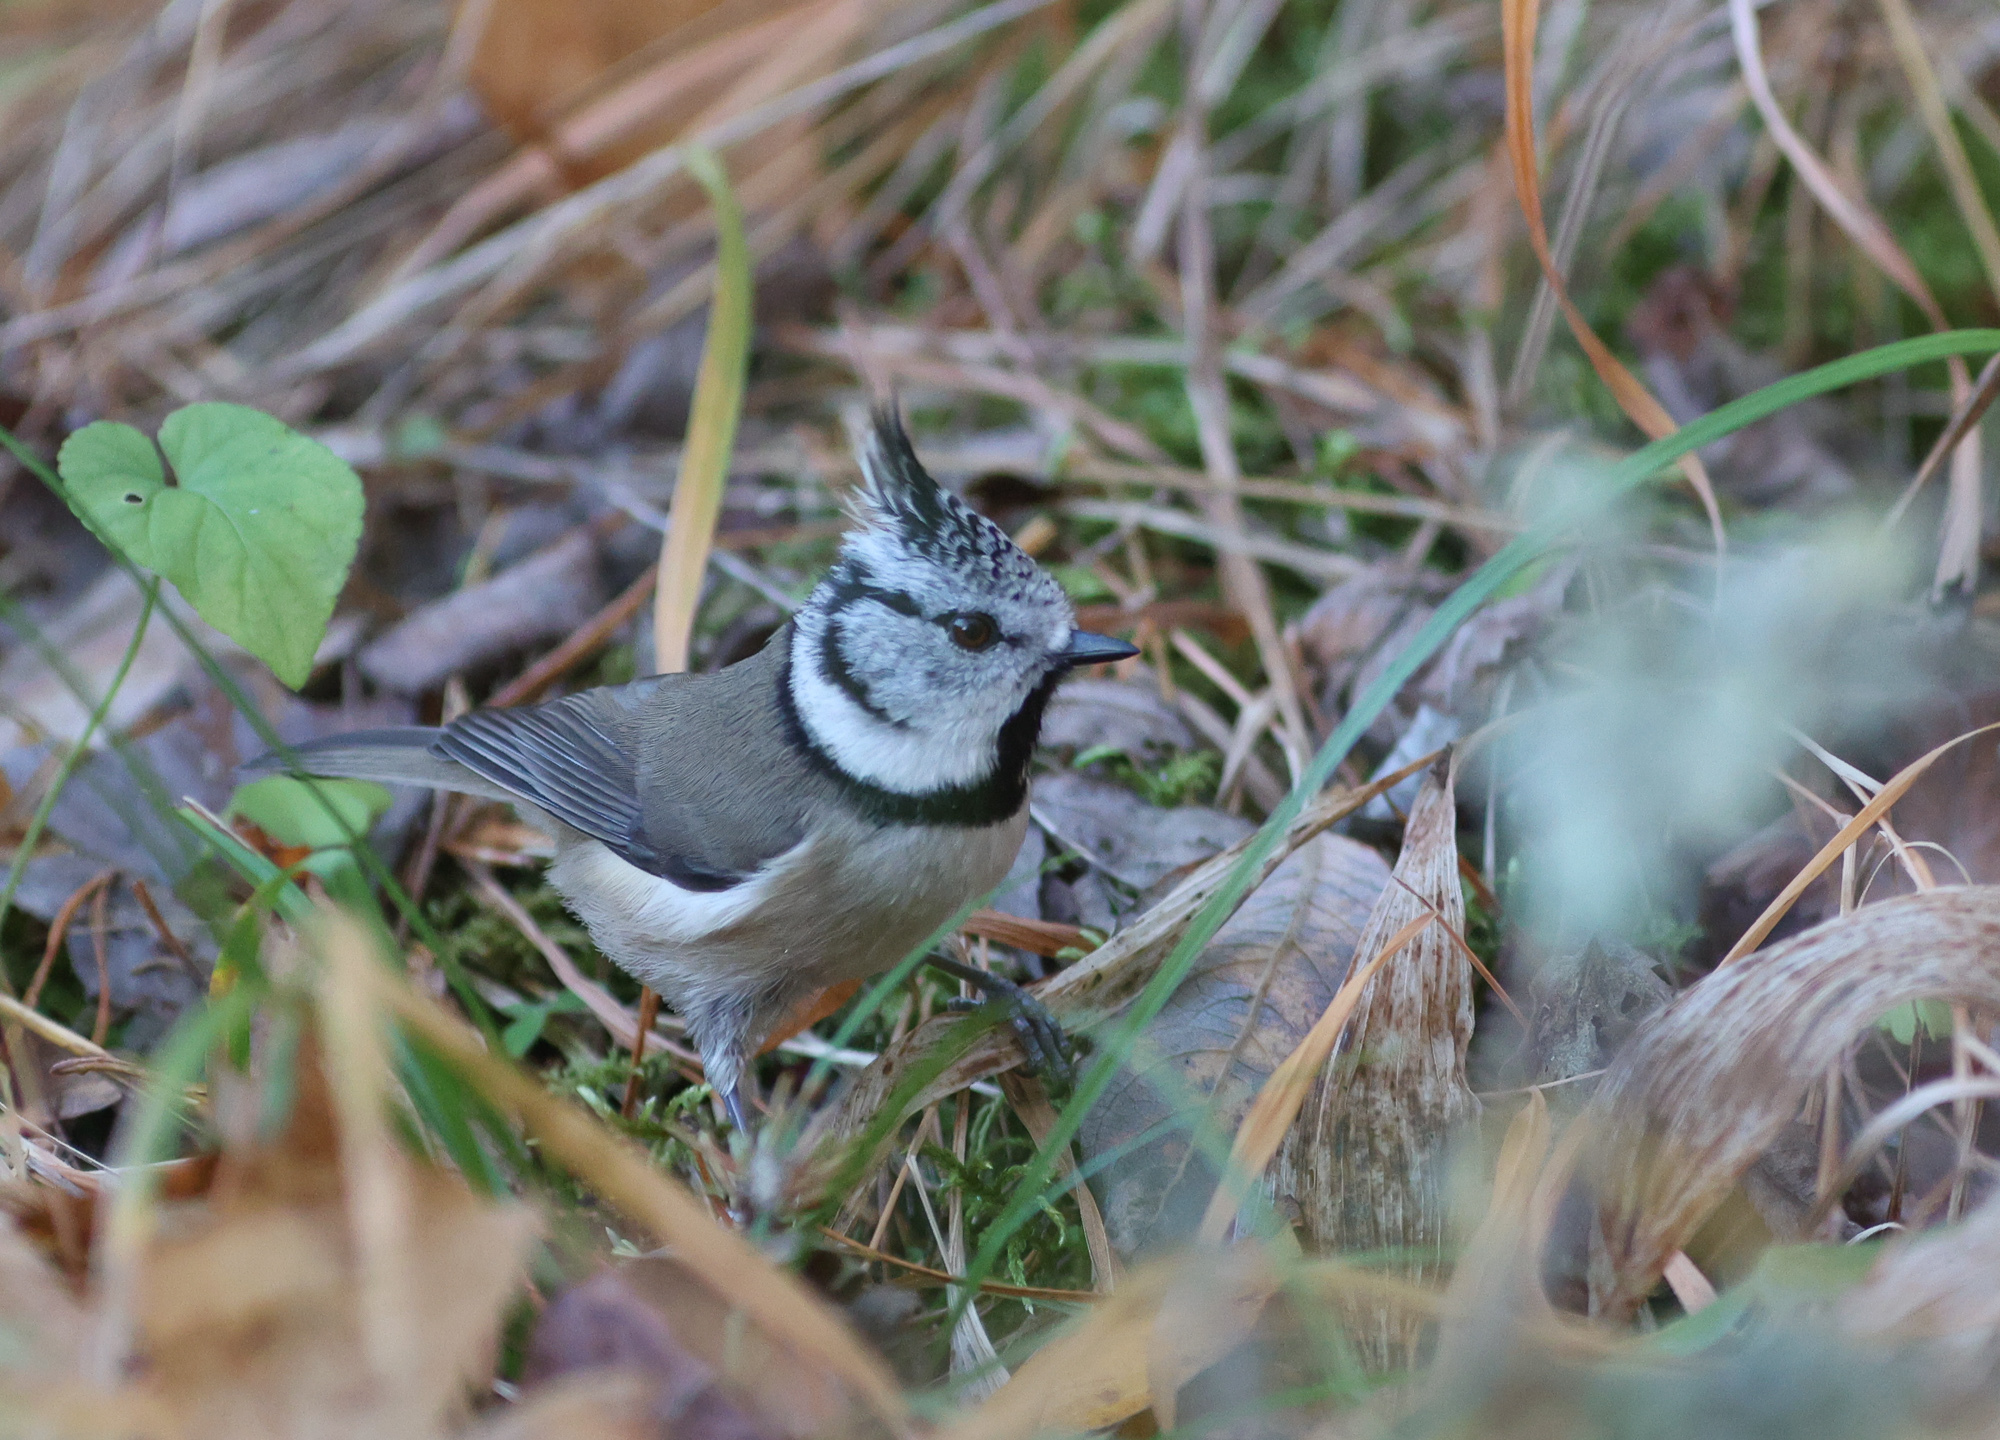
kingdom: Animalia
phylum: Chordata
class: Aves
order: Passeriformes
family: Paridae
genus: Lophophanes
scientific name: Lophophanes cristatus
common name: European crested tit
